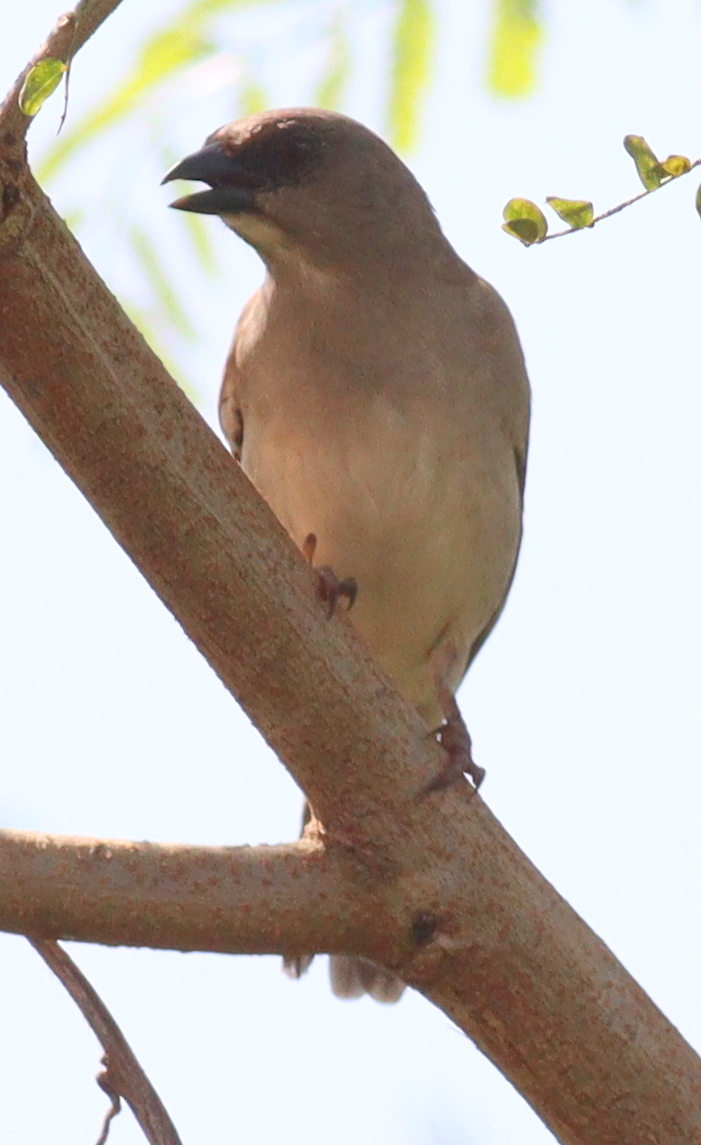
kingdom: Animalia
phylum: Chordata
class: Aves
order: Passeriformes
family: Passeridae
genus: Passer
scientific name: Passer griseus
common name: Northern grey-headed sparrow
